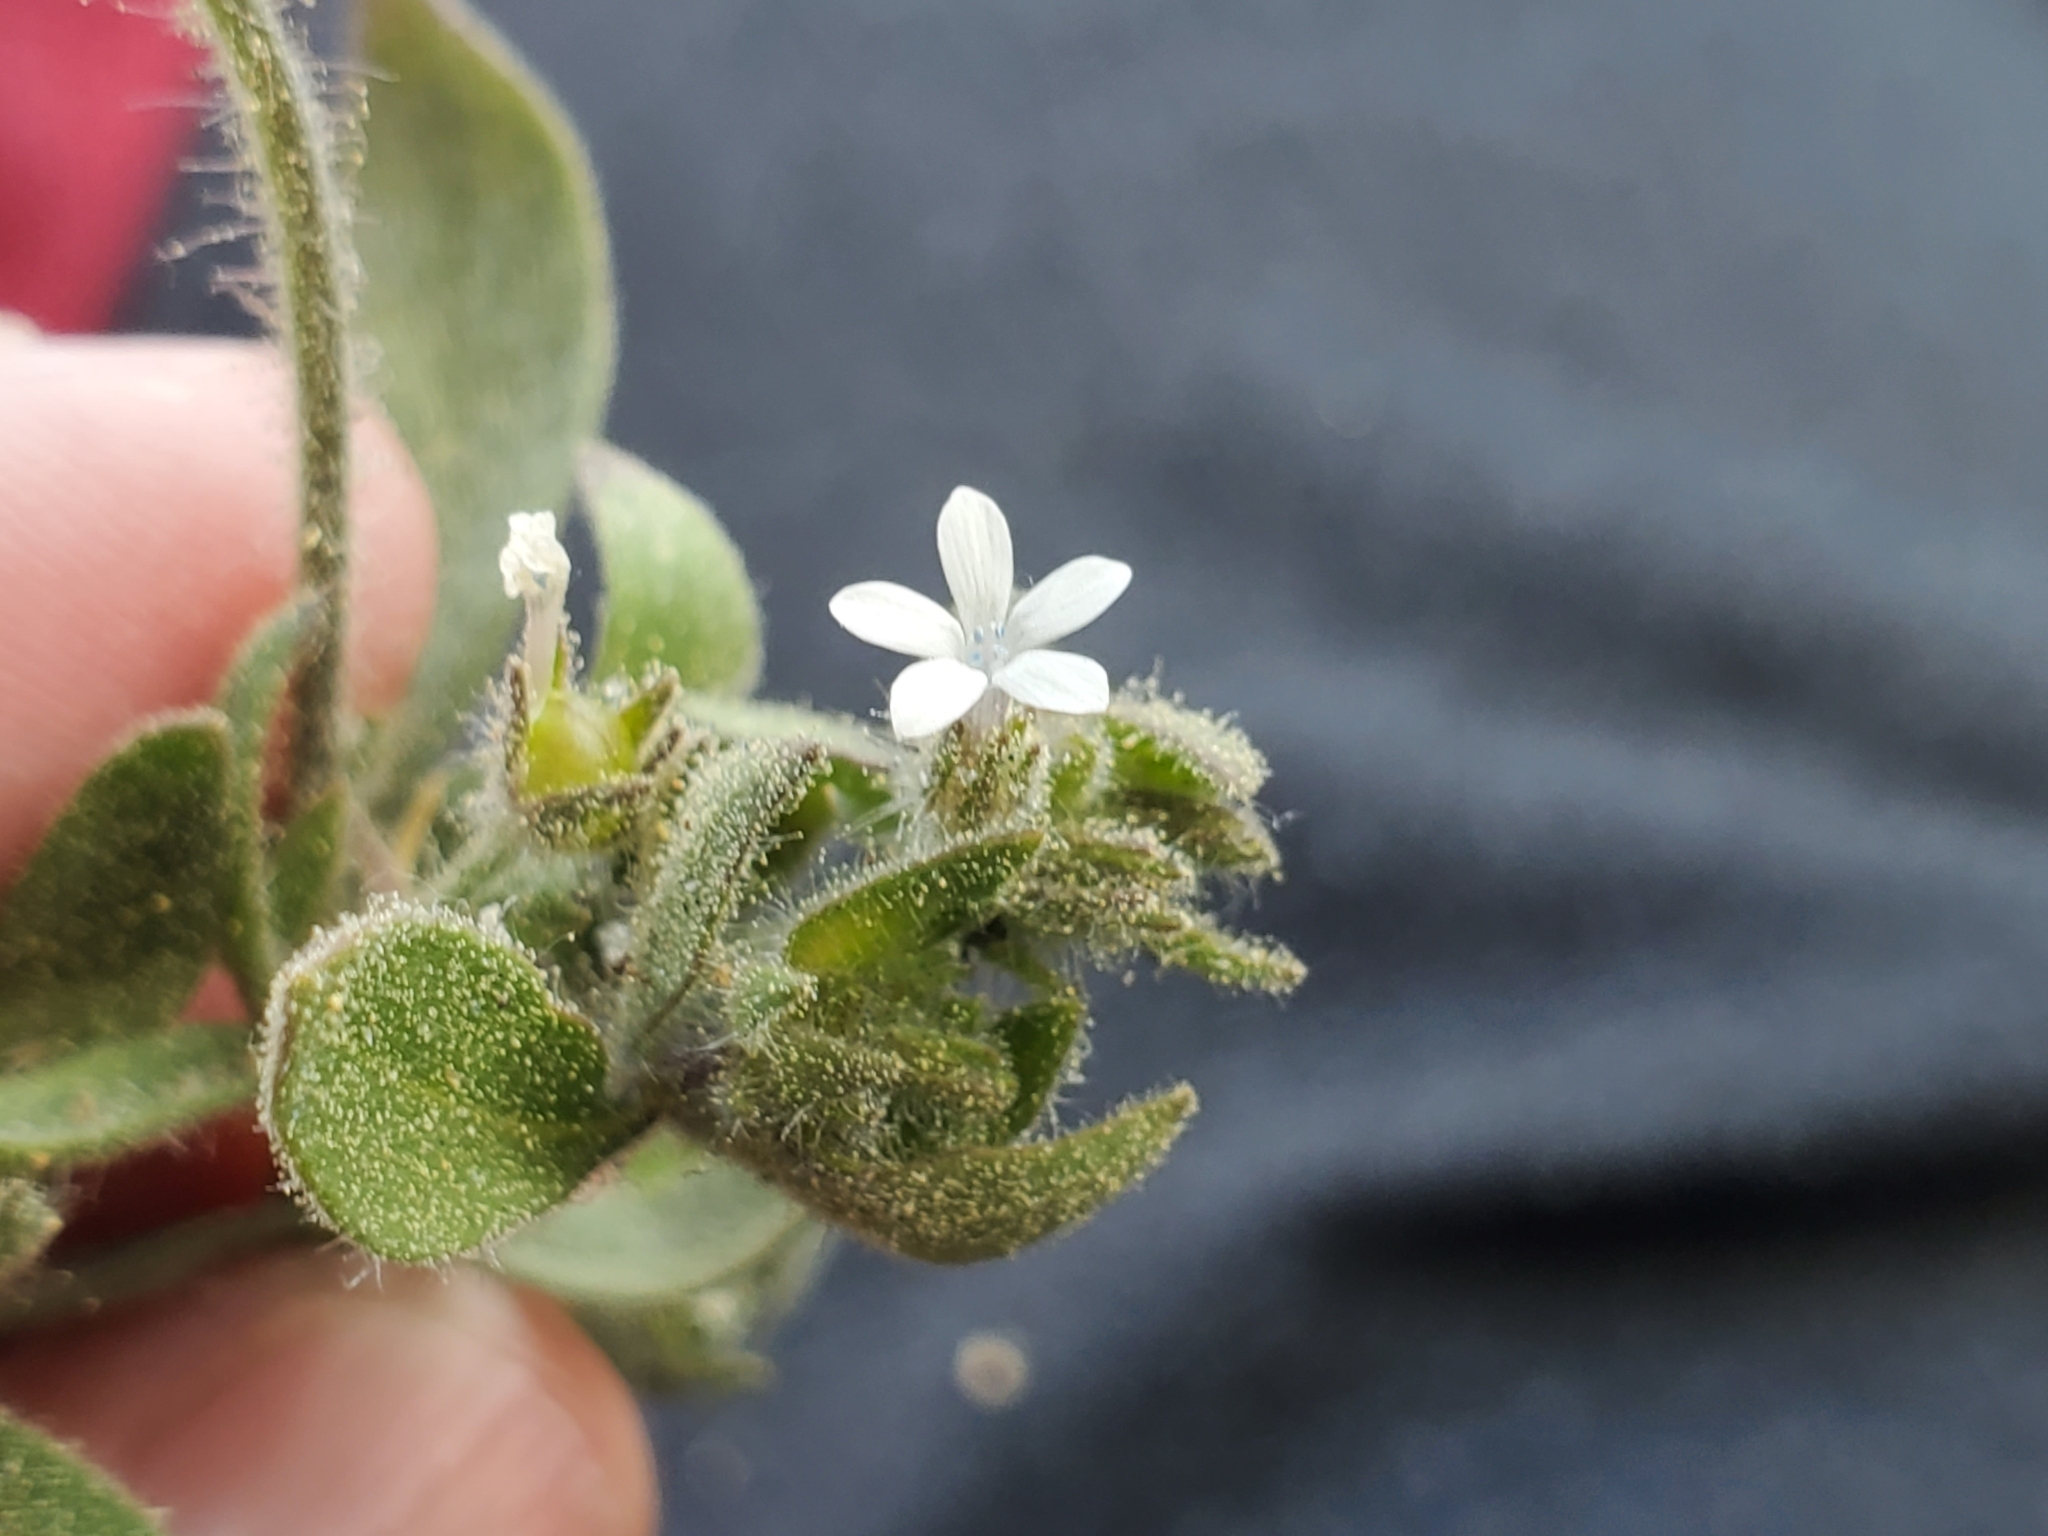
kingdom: Plantae
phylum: Tracheophyta
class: Magnoliopsida
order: Ericales
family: Polemoniaceae
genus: Allophyllum
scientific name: Allophyllum integrifolium
